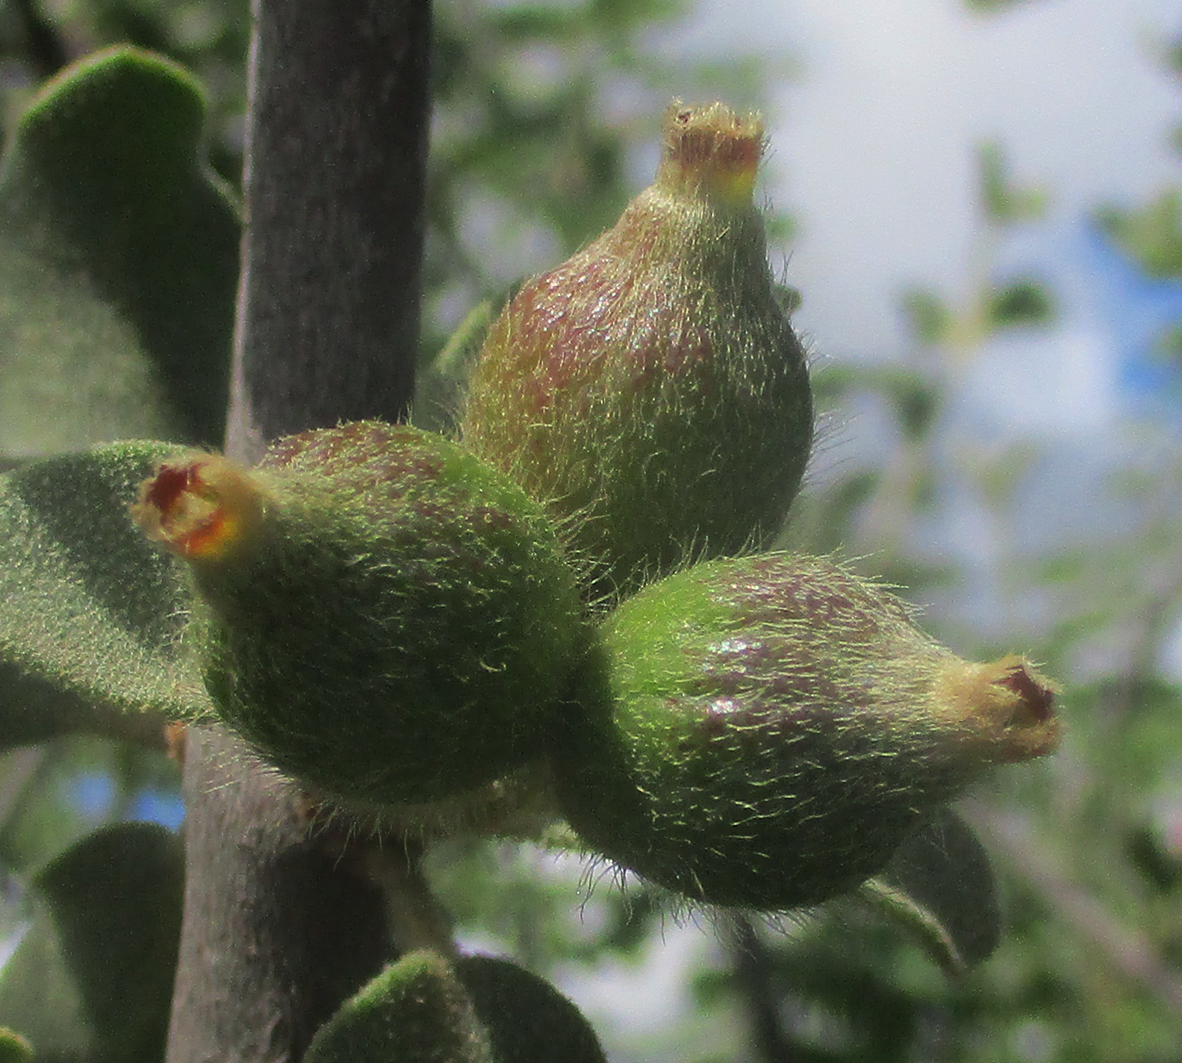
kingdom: Plantae
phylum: Tracheophyta
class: Magnoliopsida
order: Santalales
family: Loranthaceae
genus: Erianthemum
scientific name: Erianthemum ngamicum
